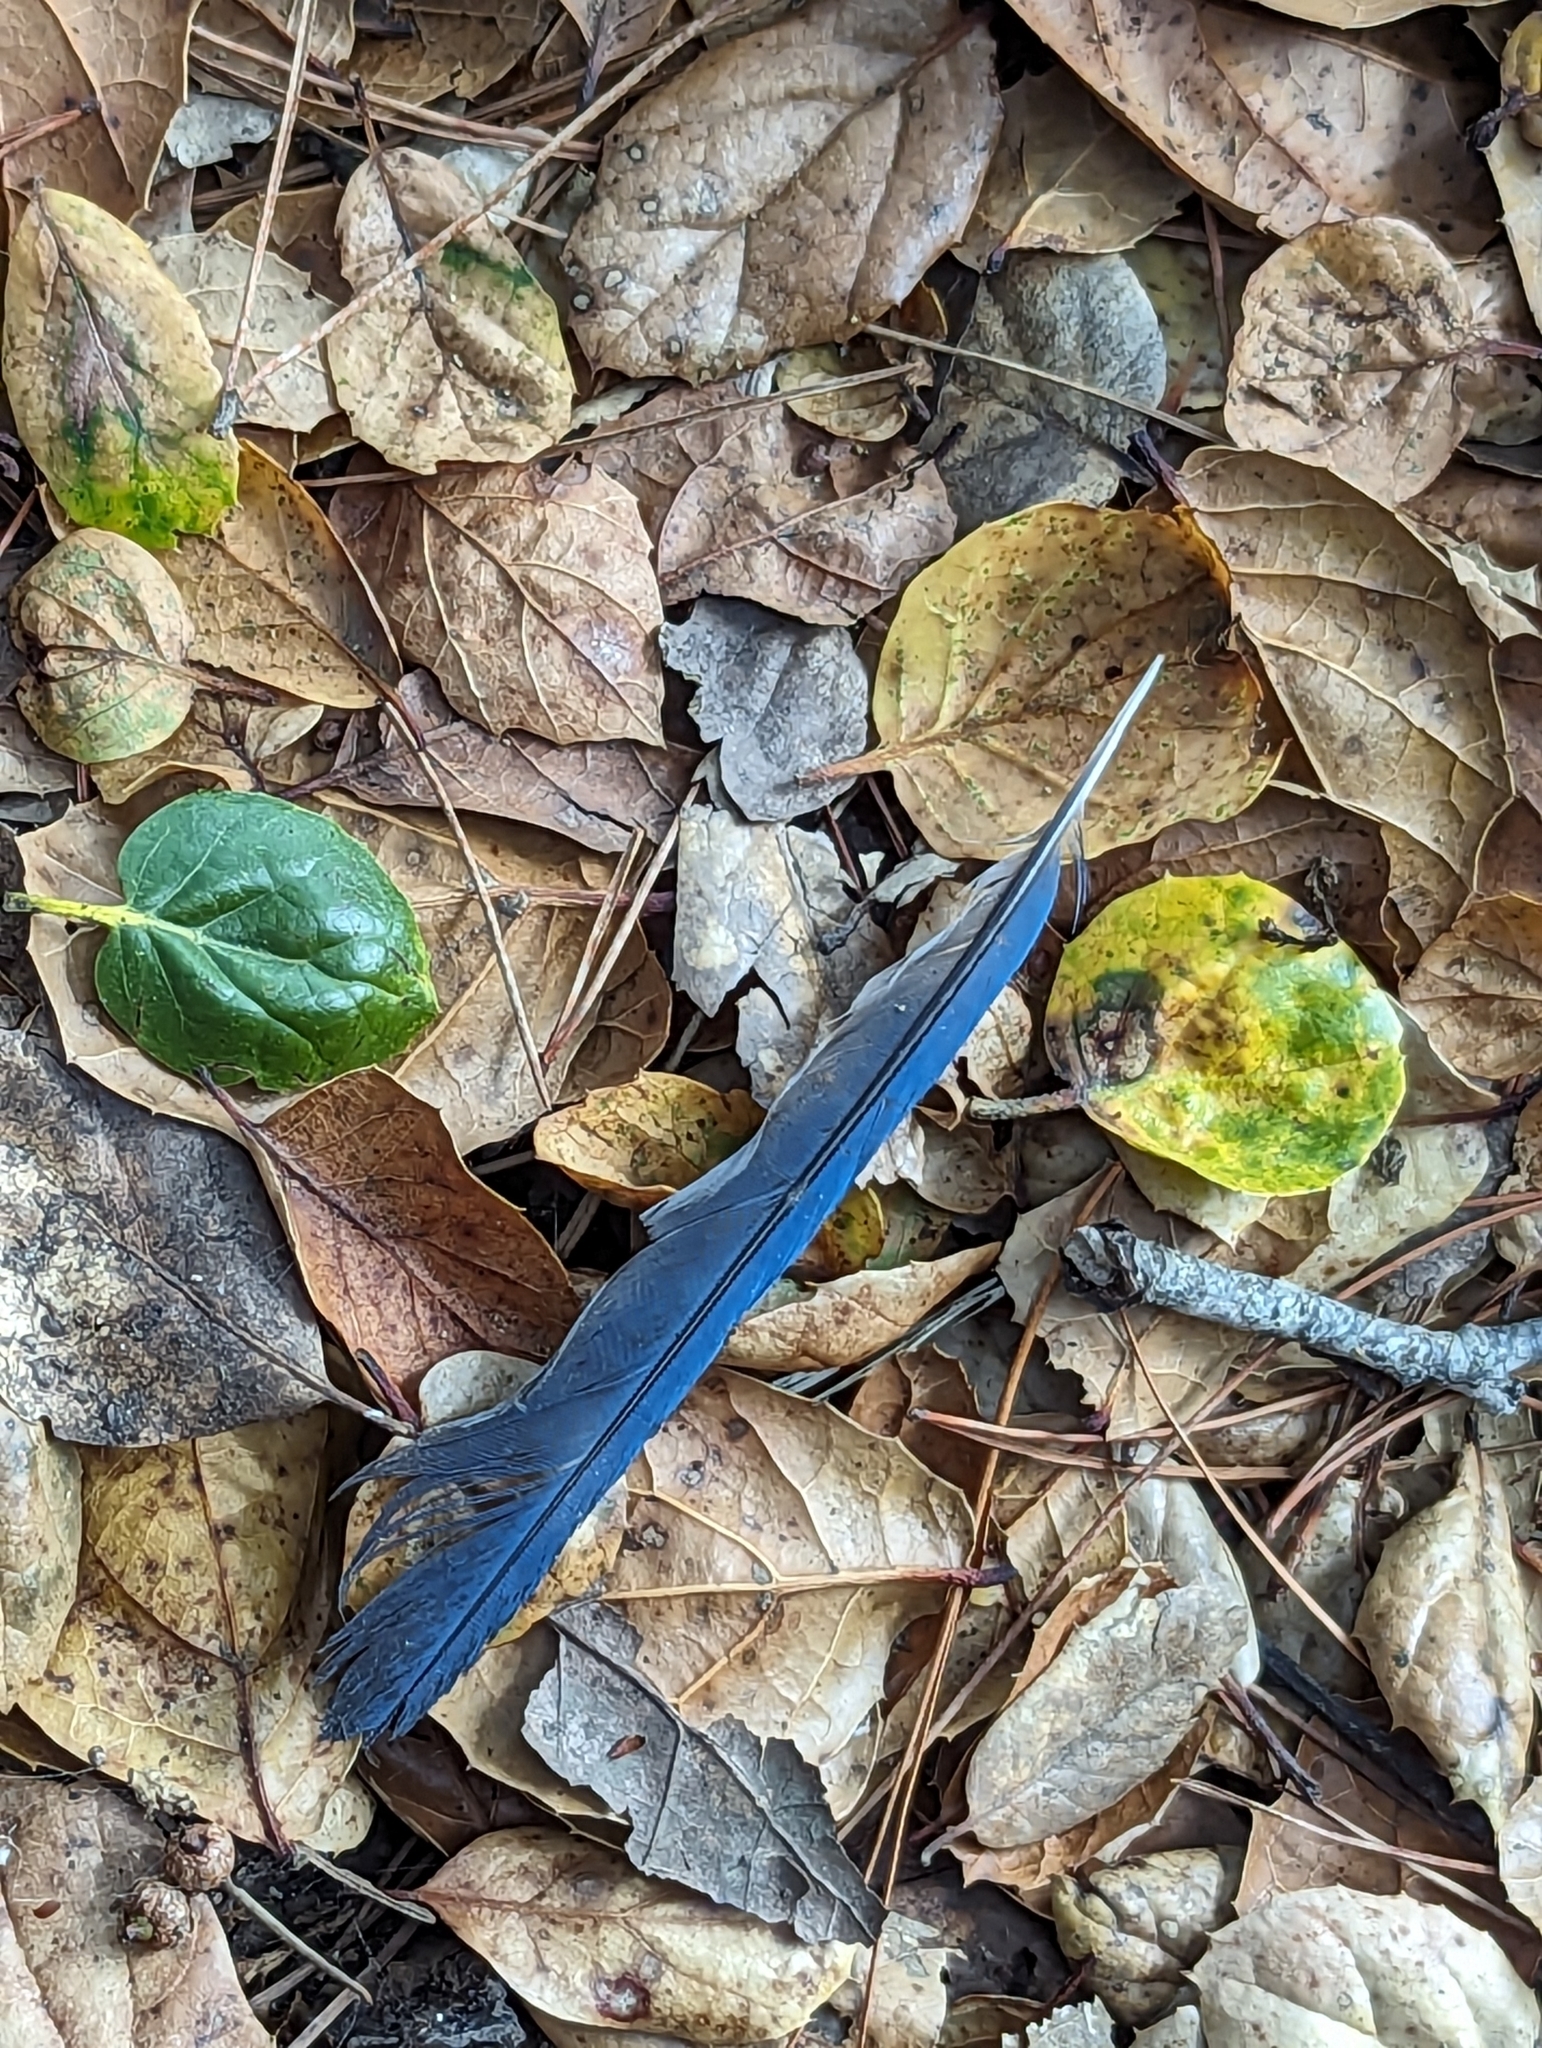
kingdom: Animalia
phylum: Chordata
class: Aves
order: Passeriformes
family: Corvidae
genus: Cyanocitta
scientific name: Cyanocitta stelleri
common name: Steller's jay
